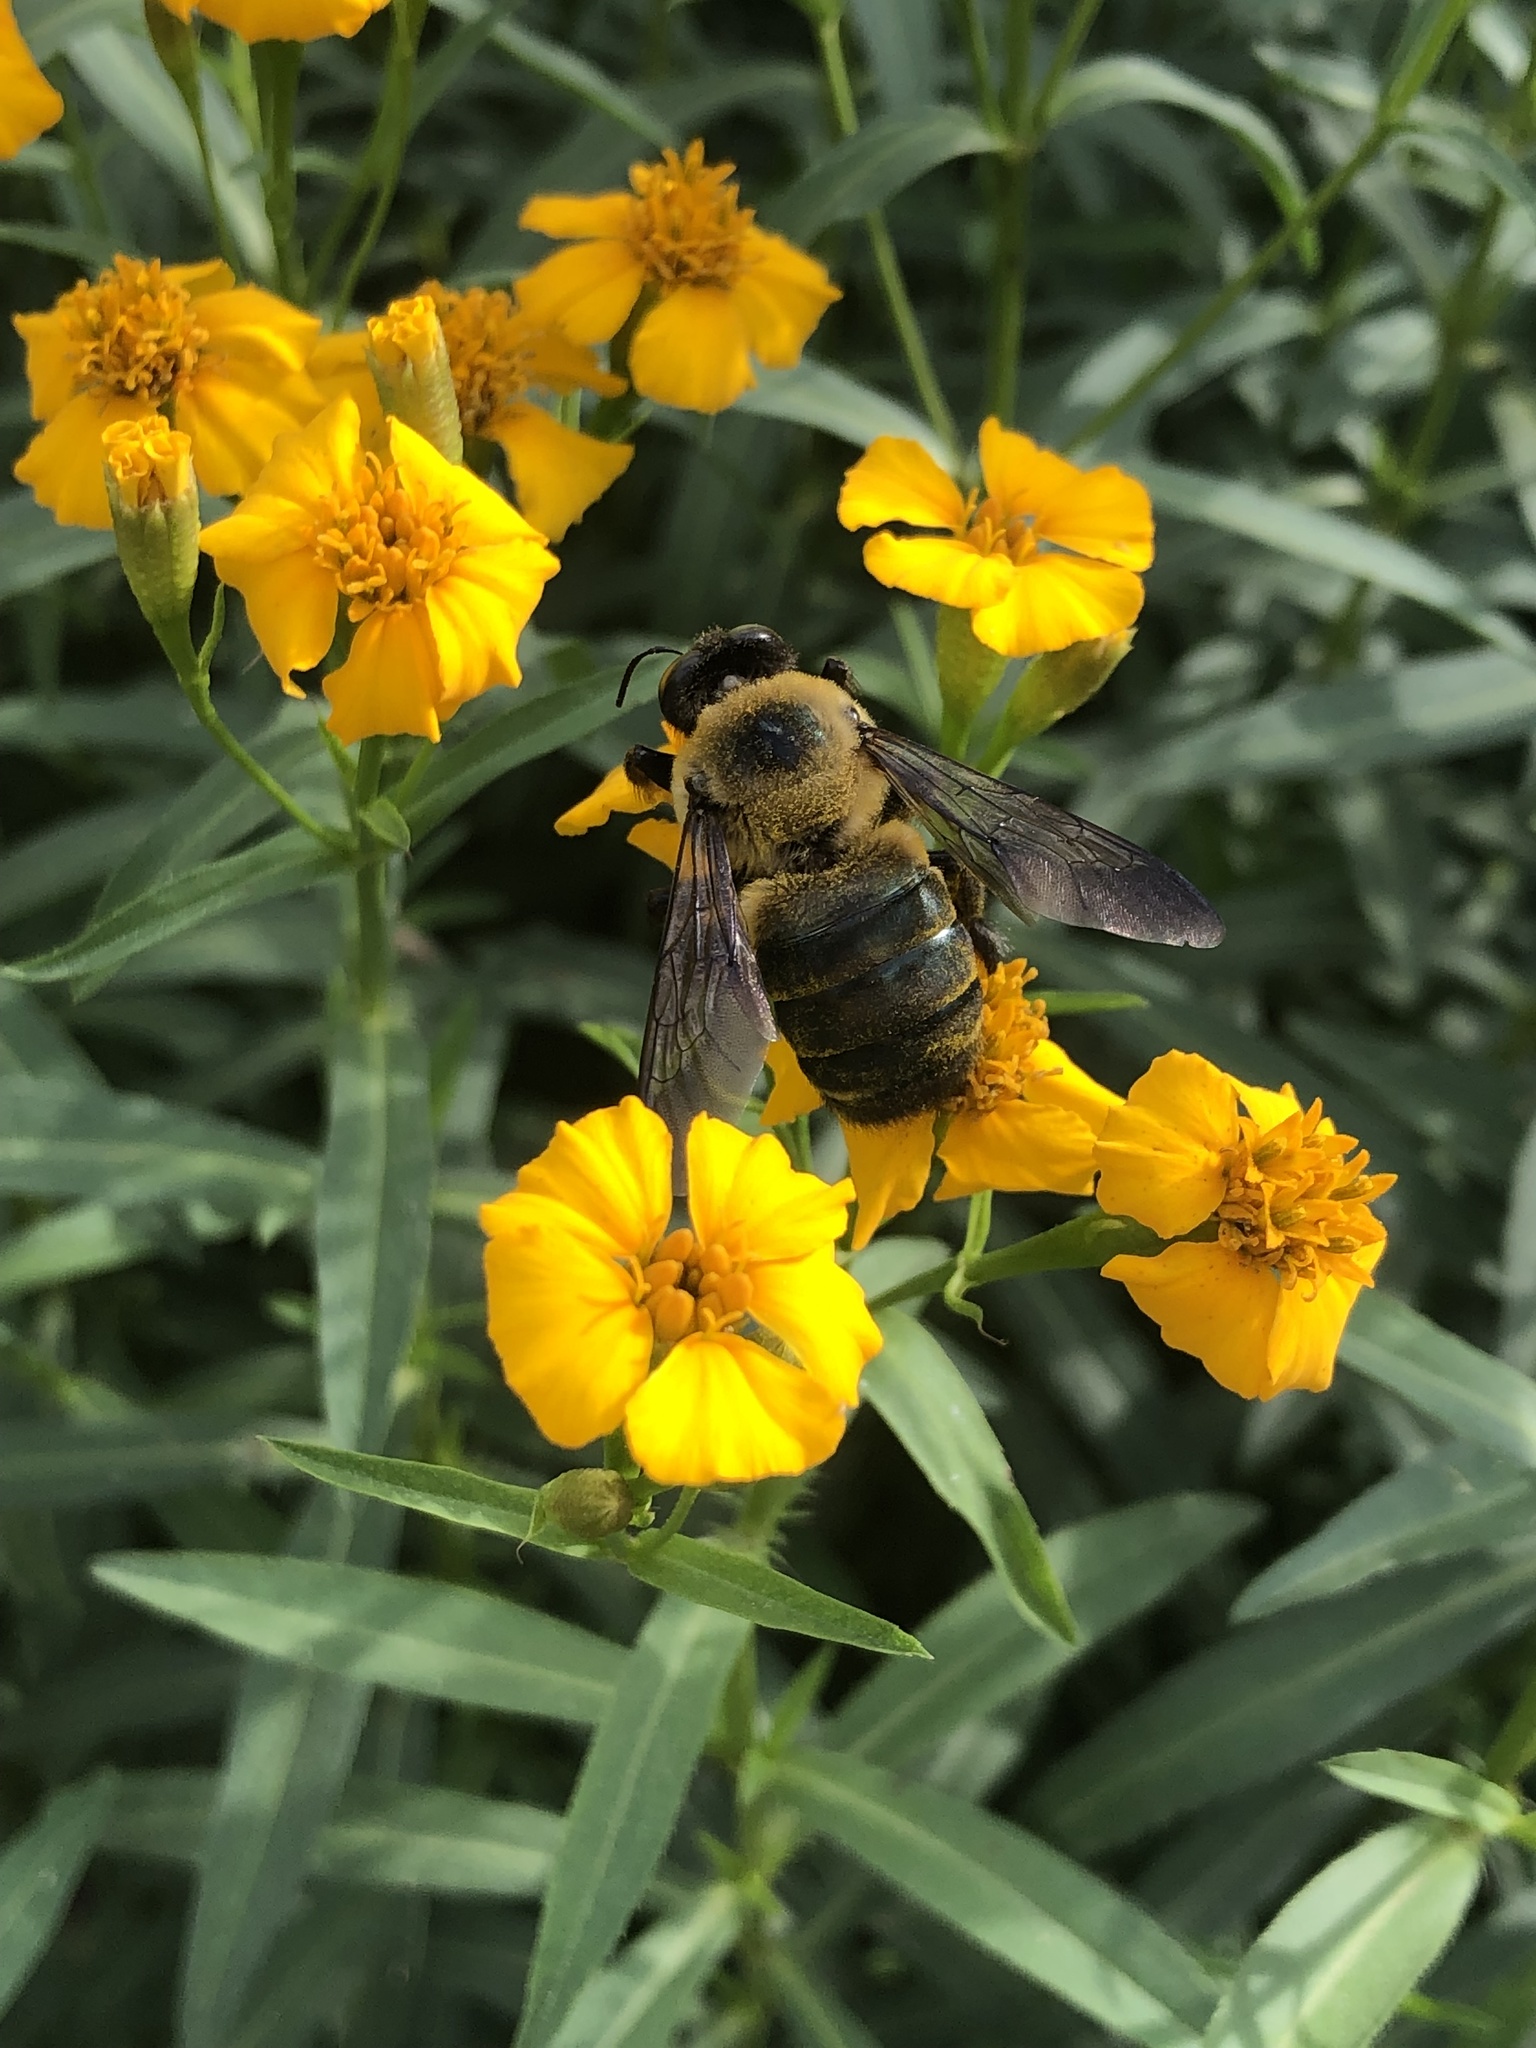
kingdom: Animalia
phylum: Arthropoda
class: Insecta
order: Hymenoptera
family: Apidae
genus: Xylocopa
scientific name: Xylocopa virginica
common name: Carpenter bee
